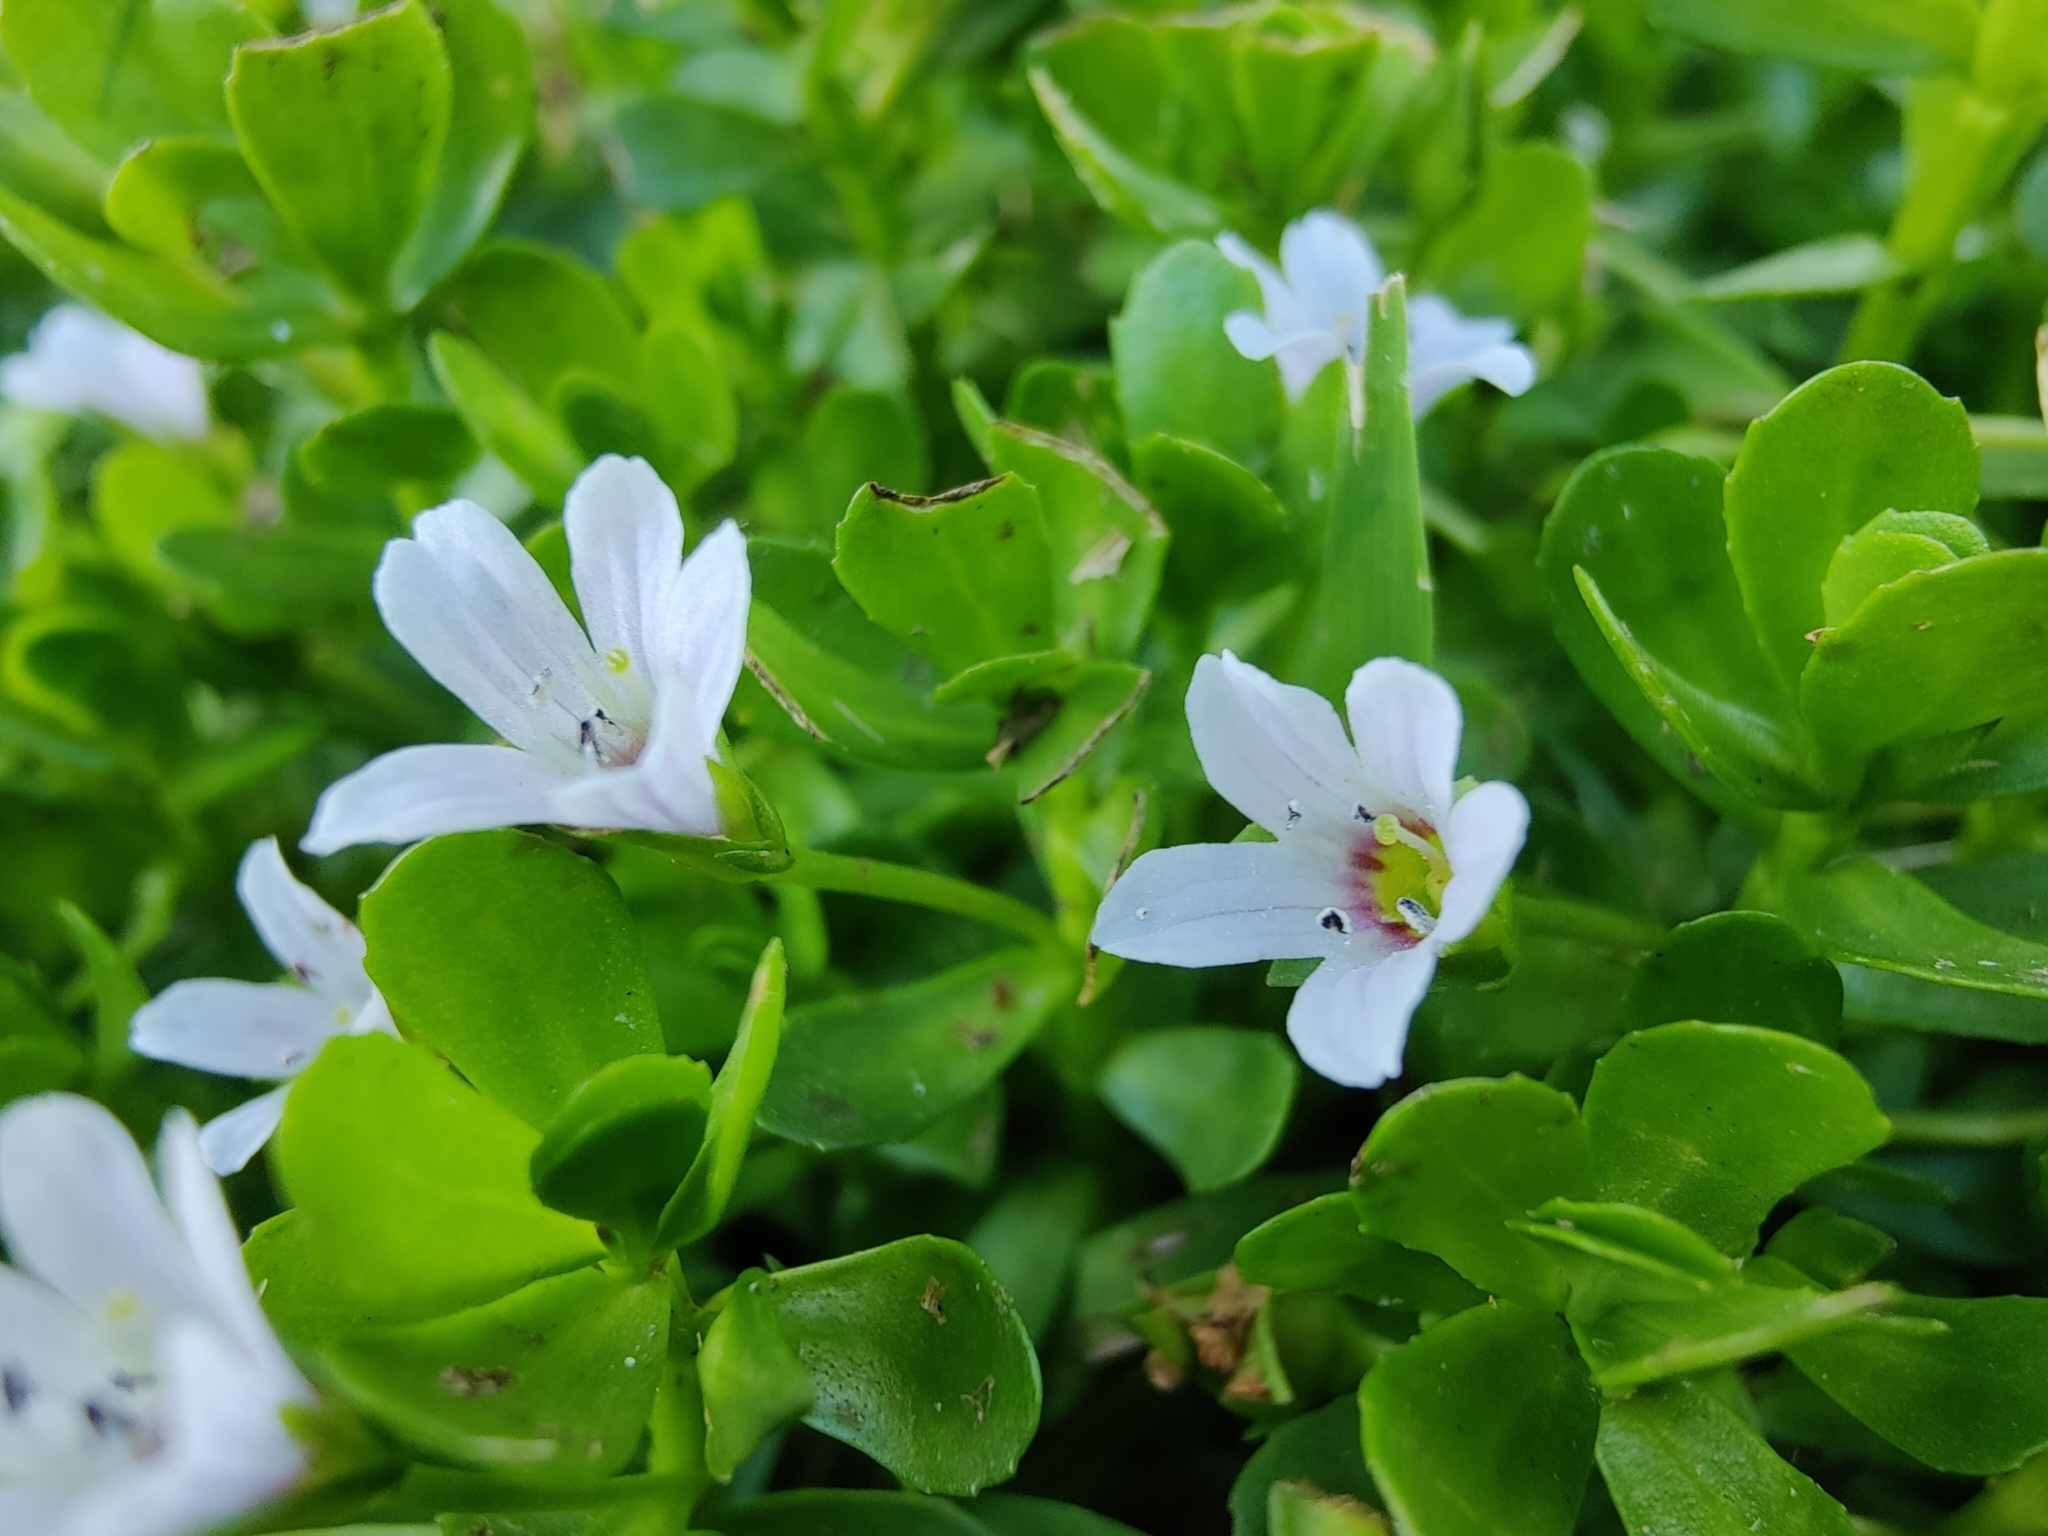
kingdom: Plantae
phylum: Tracheophyta
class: Magnoliopsida
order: Lamiales
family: Plantaginaceae
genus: Bacopa
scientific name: Bacopa monnieri
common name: Indian-pennywort
